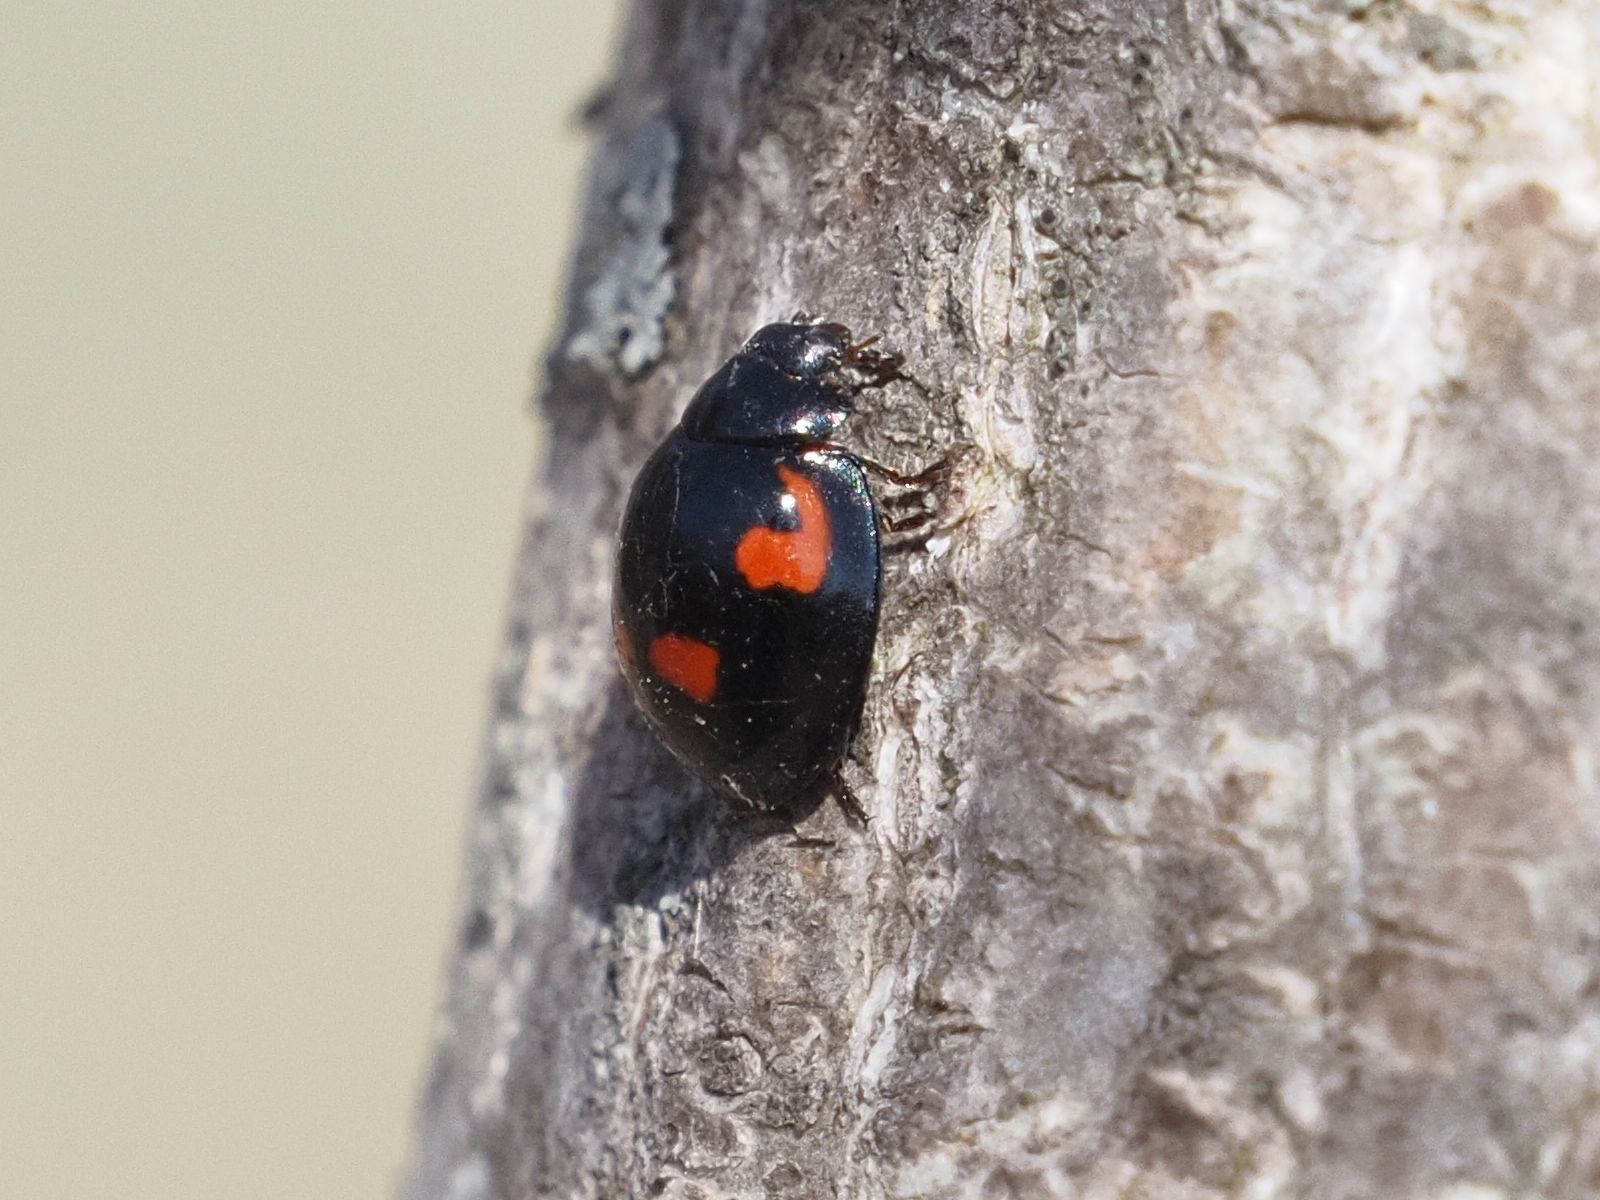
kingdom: Animalia
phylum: Arthropoda
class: Insecta
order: Coleoptera
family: Coccinellidae
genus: Brumus
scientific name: Brumus quadripustulatus
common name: Ladybird beetle
